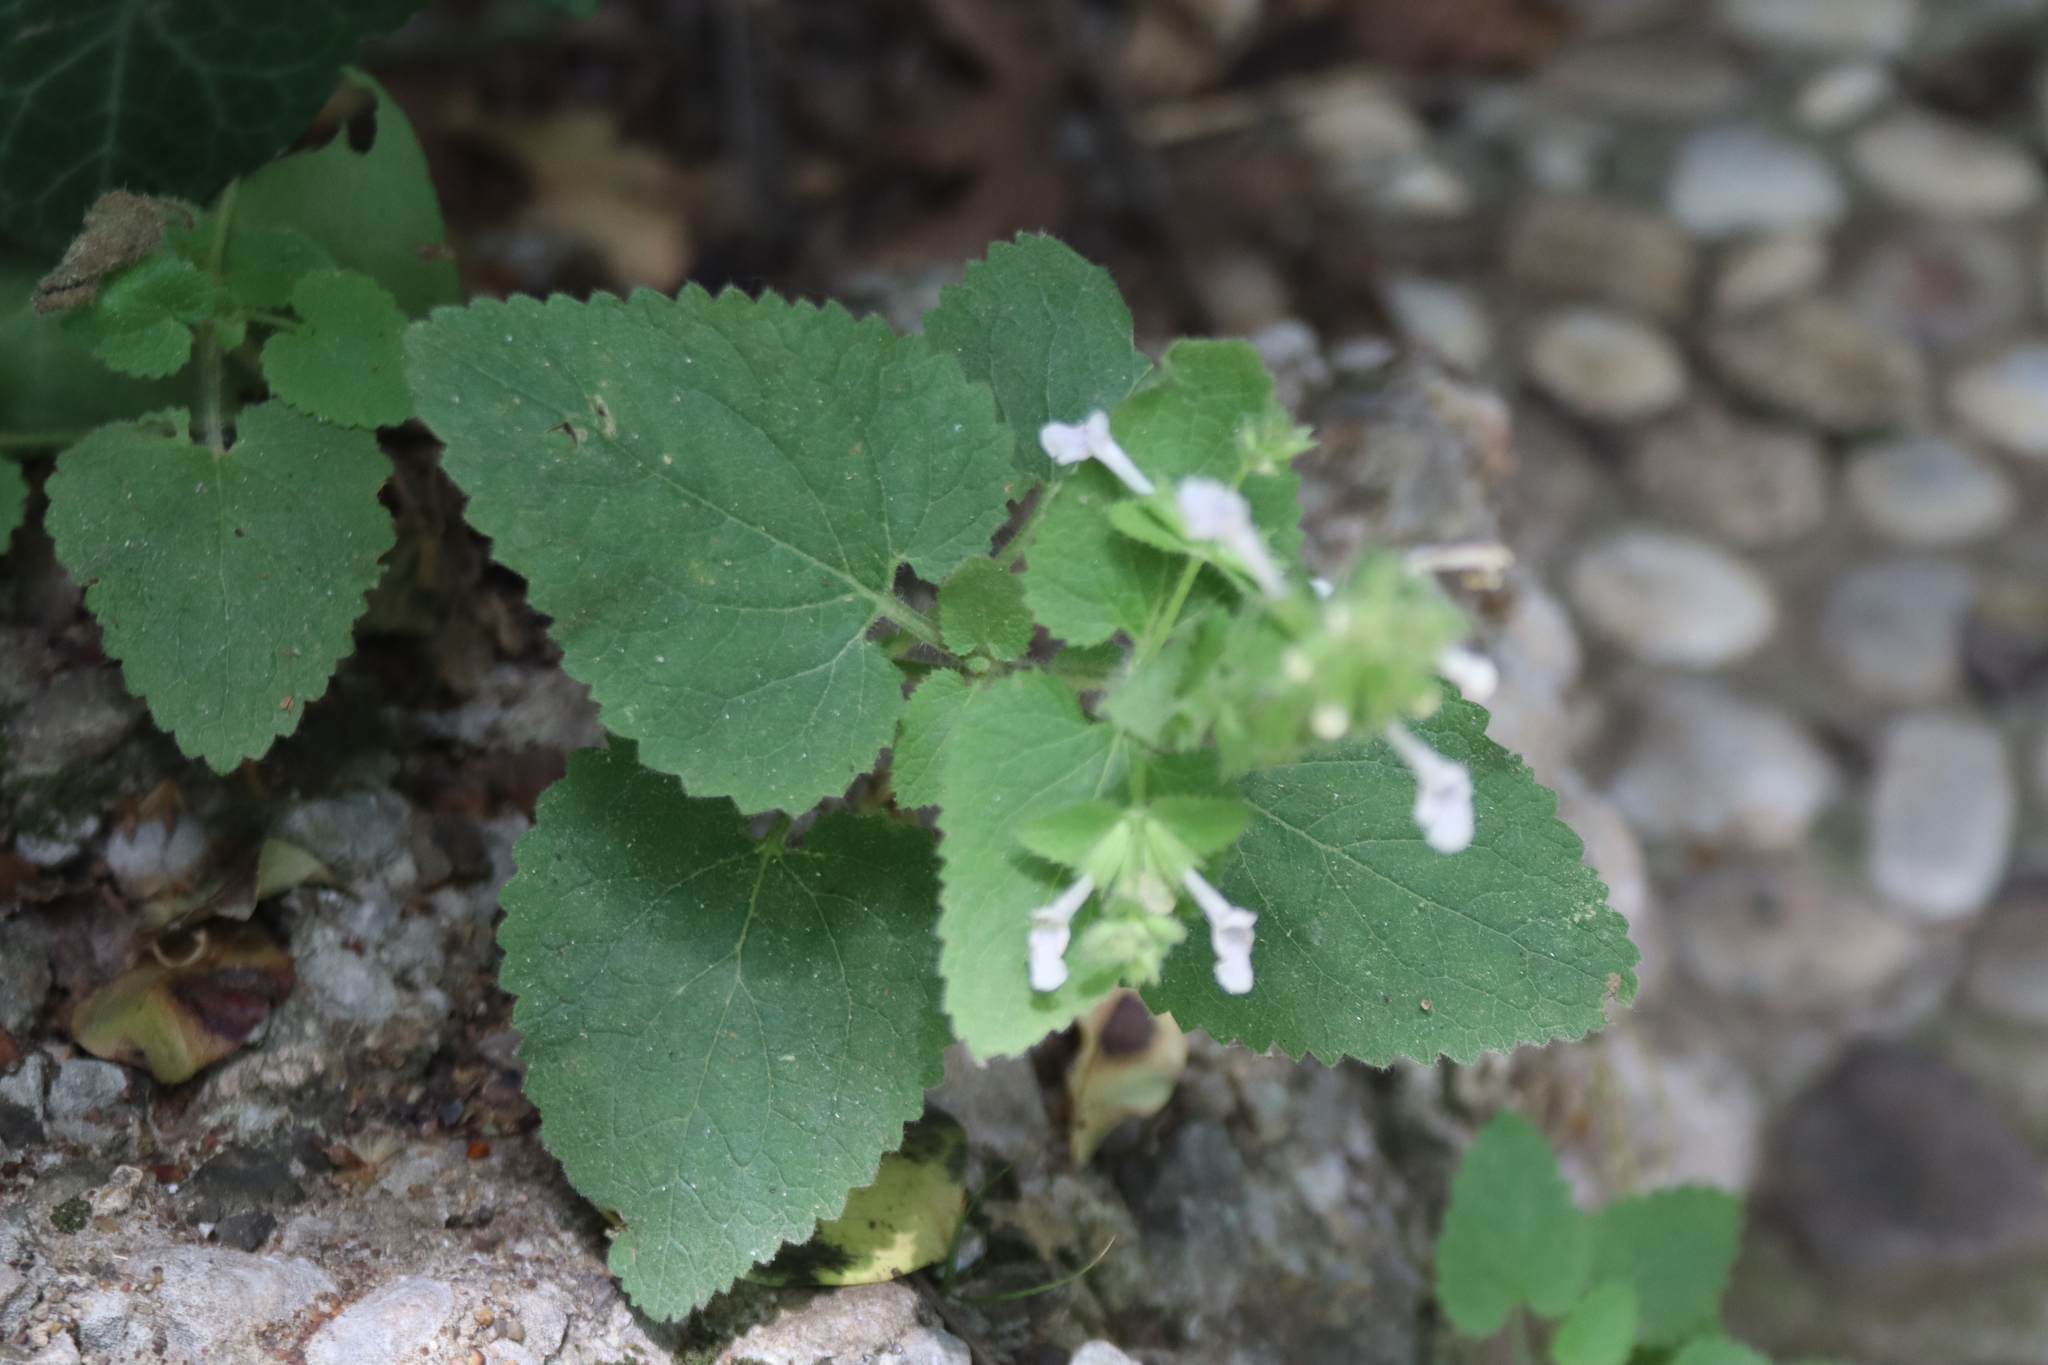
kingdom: Plantae
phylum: Tracheophyta
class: Magnoliopsida
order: Lamiales
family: Lamiaceae
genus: Melissa
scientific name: Melissa officinalis
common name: Balm
